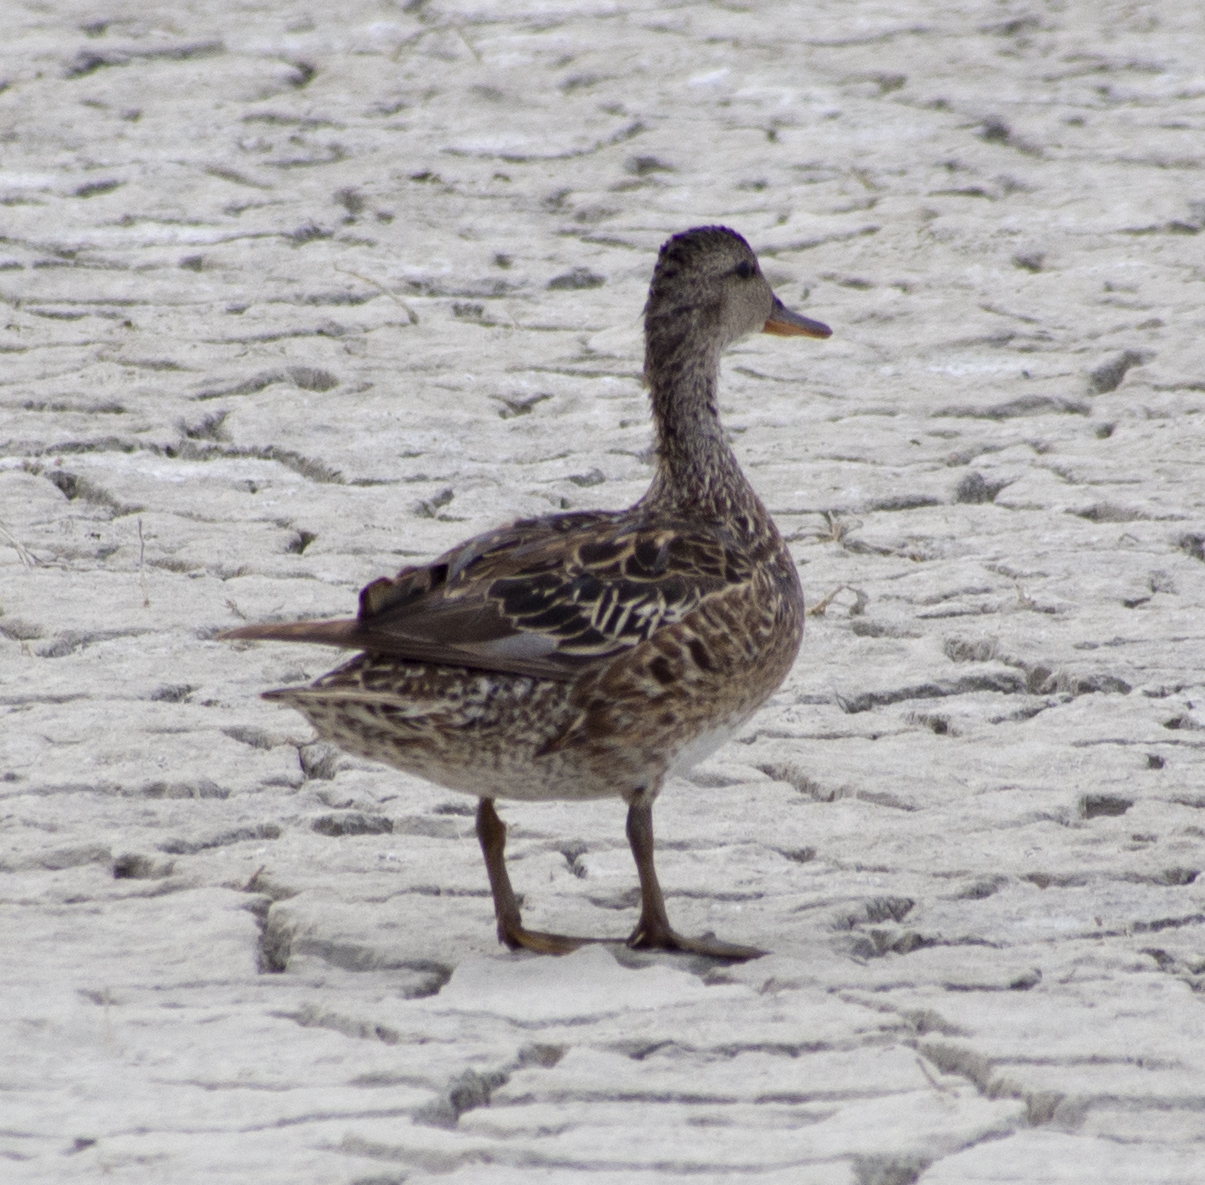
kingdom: Animalia
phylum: Chordata
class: Aves
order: Anseriformes
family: Anatidae
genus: Anas
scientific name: Anas platyrhynchos
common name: Mallard
